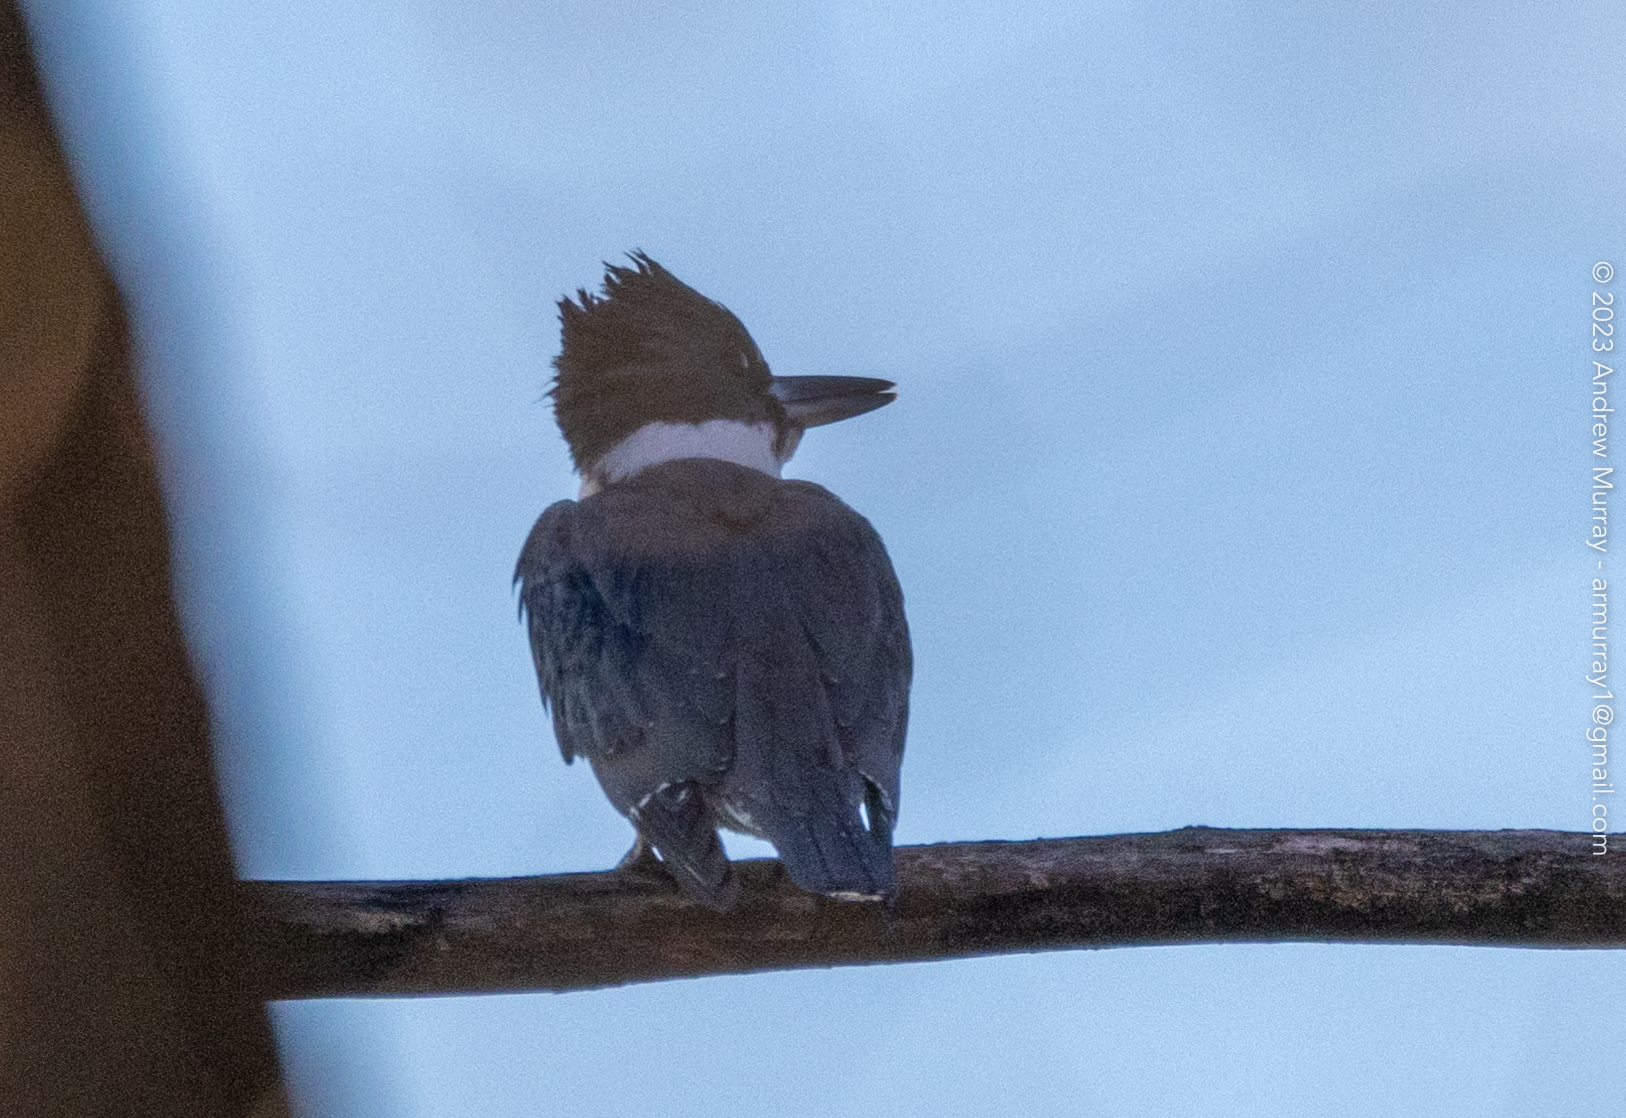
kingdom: Animalia
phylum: Chordata
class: Aves
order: Coraciiformes
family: Alcedinidae
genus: Megaceryle
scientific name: Megaceryle alcyon
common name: Belted kingfisher
